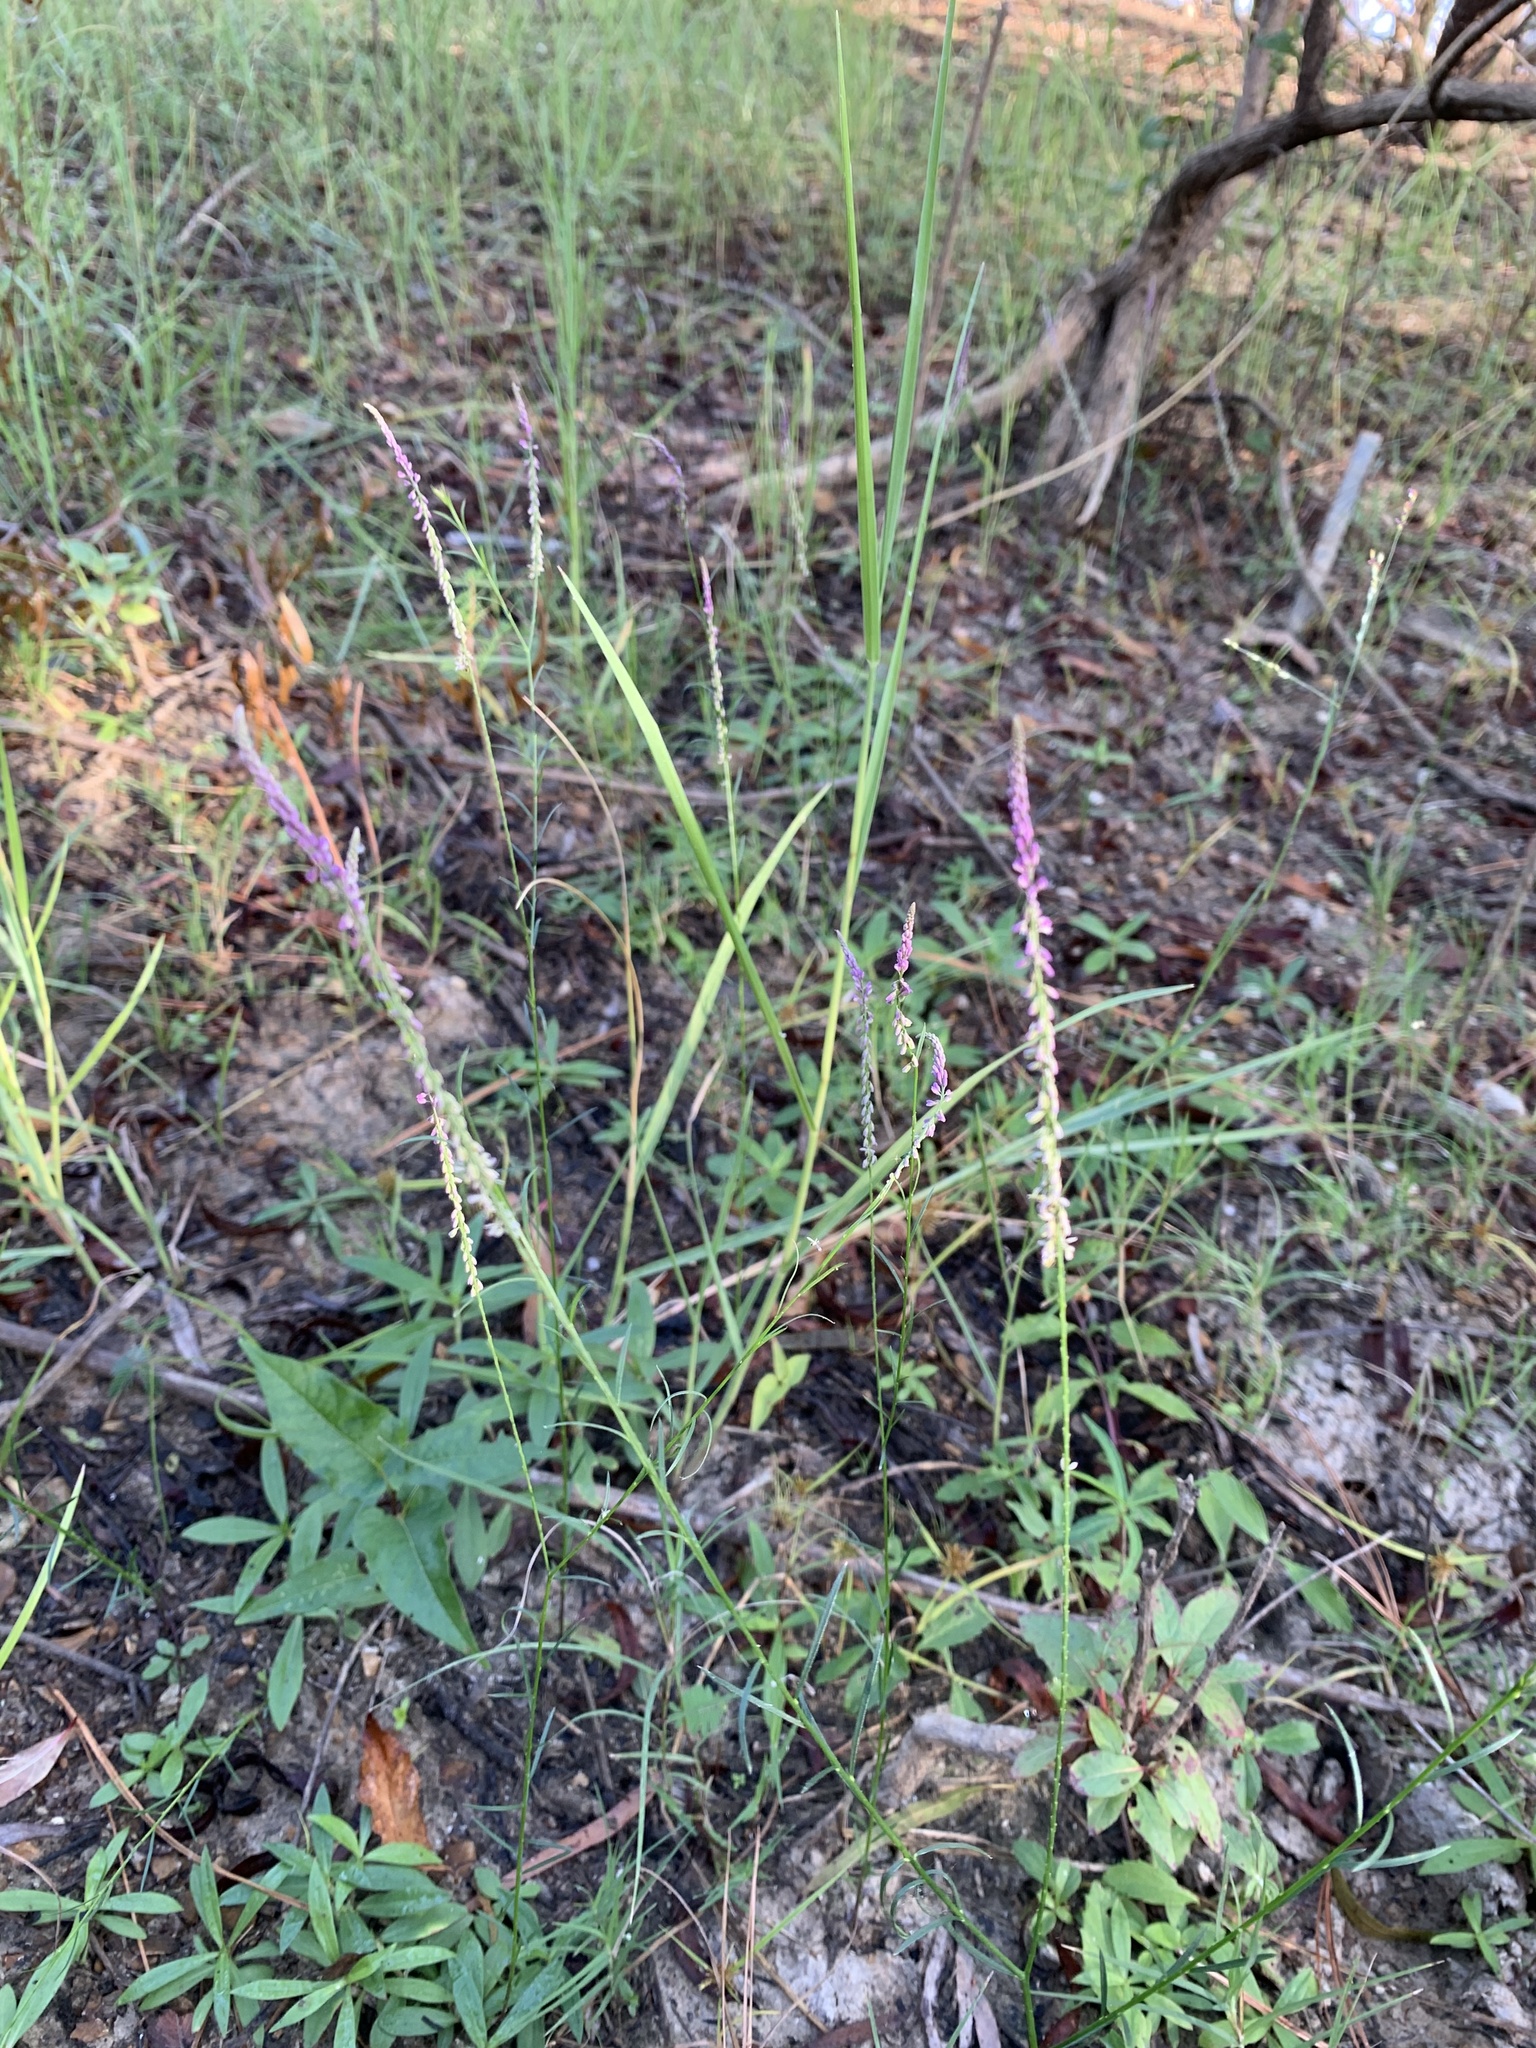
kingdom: Plantae
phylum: Tracheophyta
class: Magnoliopsida
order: Fabales
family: Polygalaceae
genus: Polygala
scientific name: Polygala tenella
